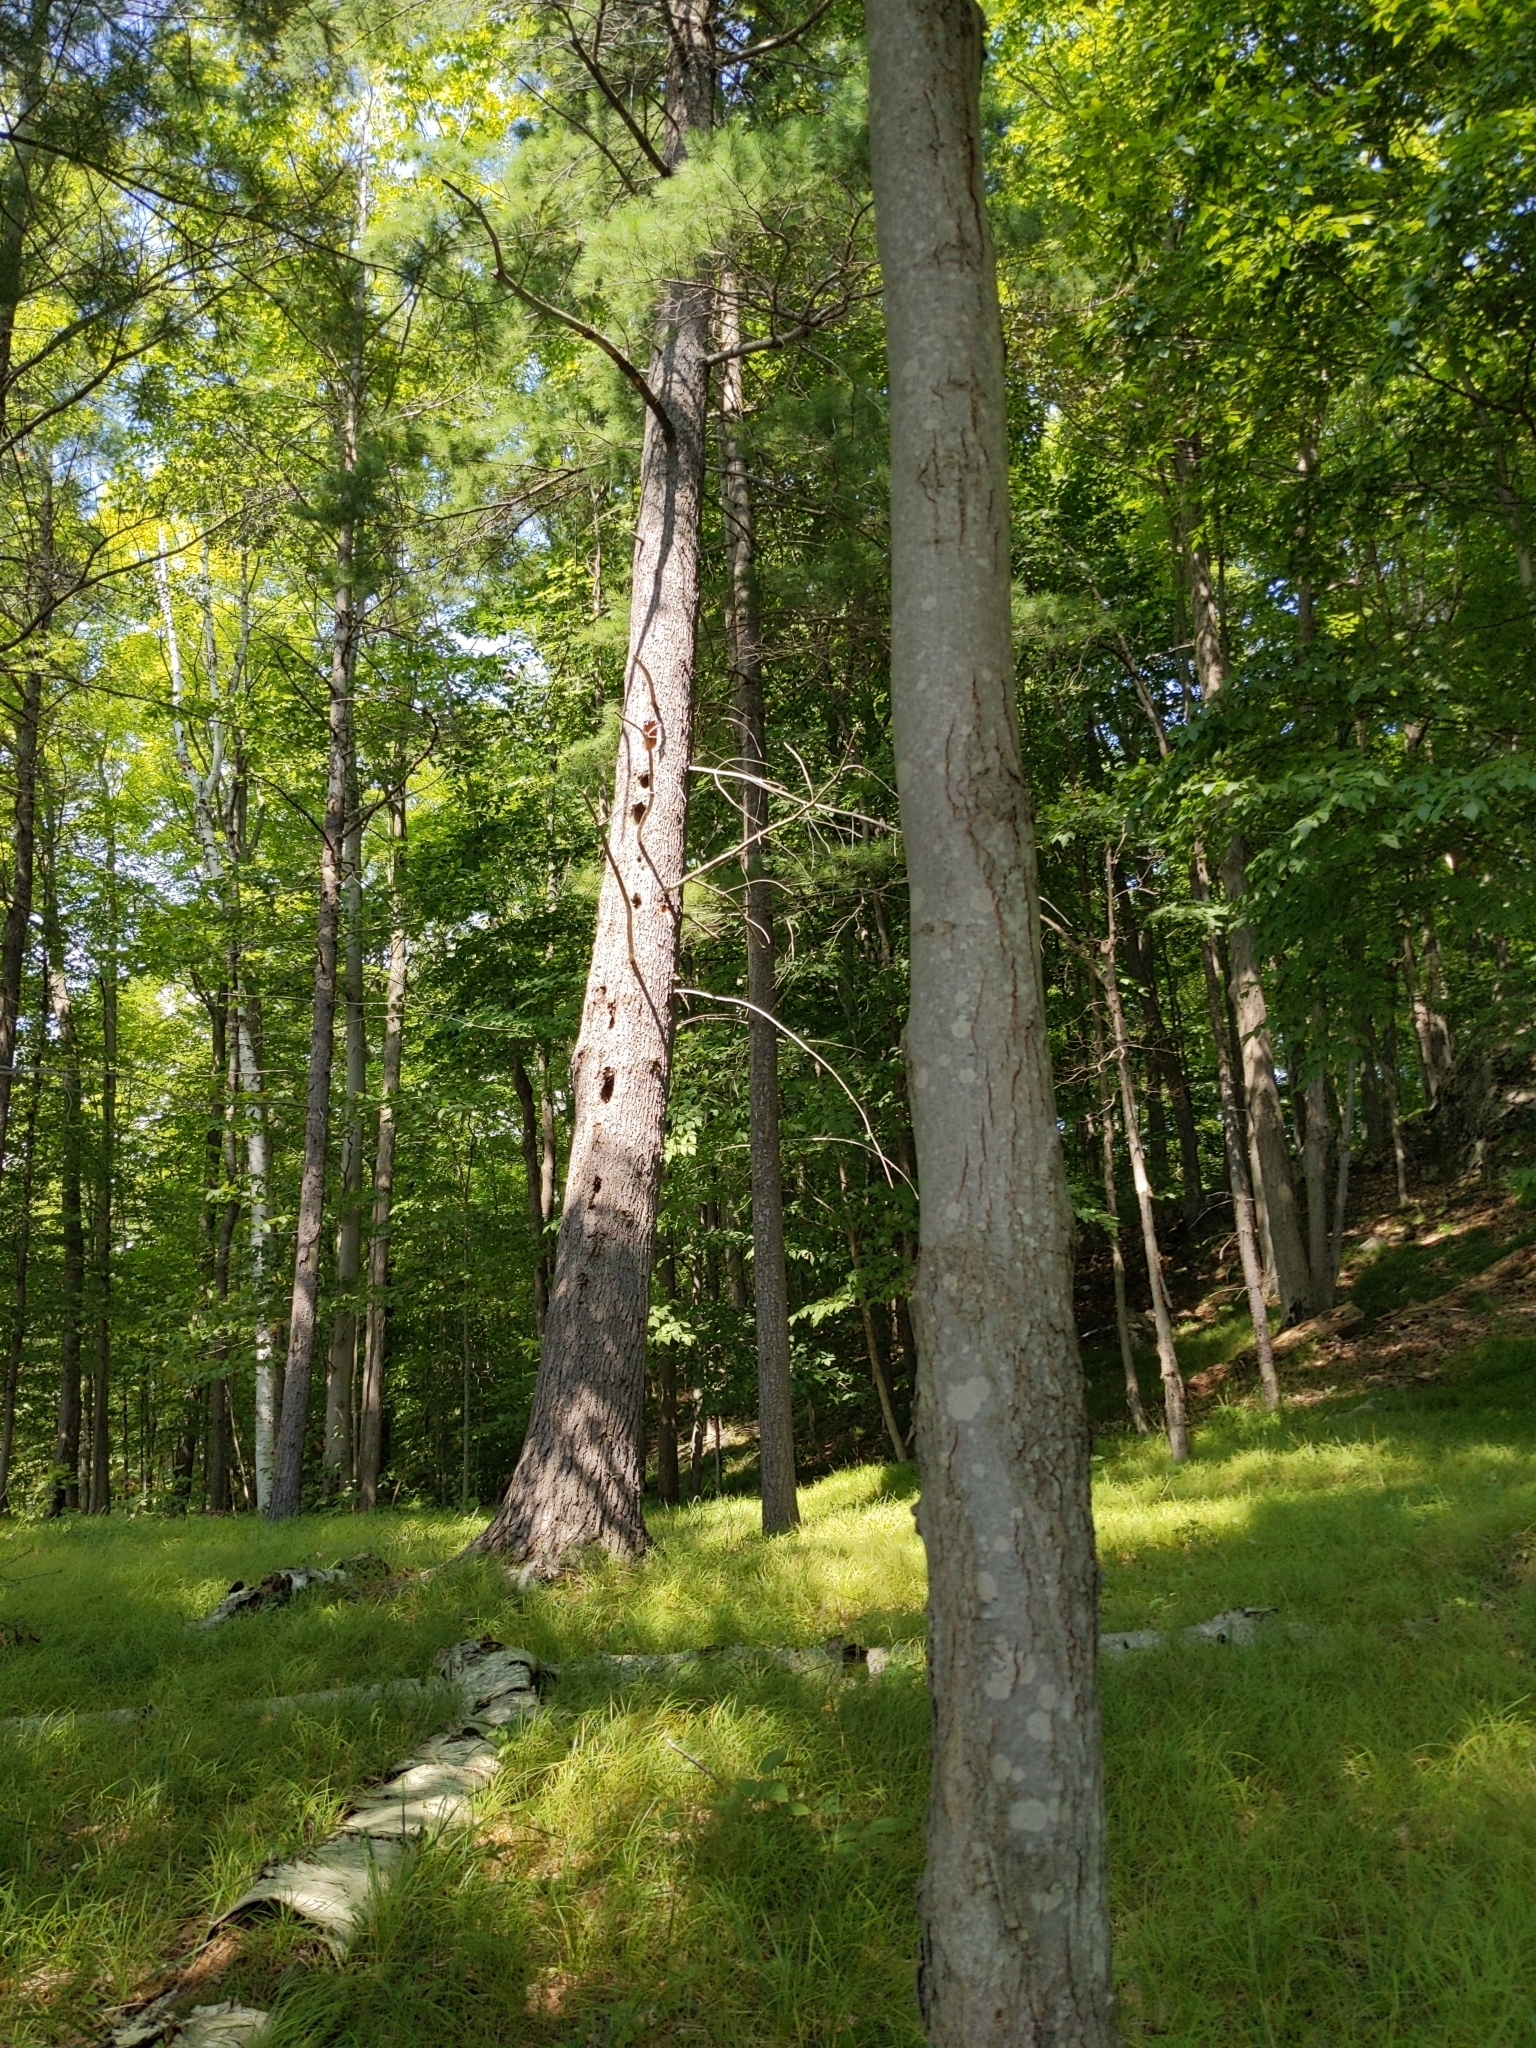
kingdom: Animalia
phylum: Chordata
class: Aves
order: Piciformes
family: Picidae
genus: Dryocopus
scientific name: Dryocopus pileatus
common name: Pileated woodpecker
